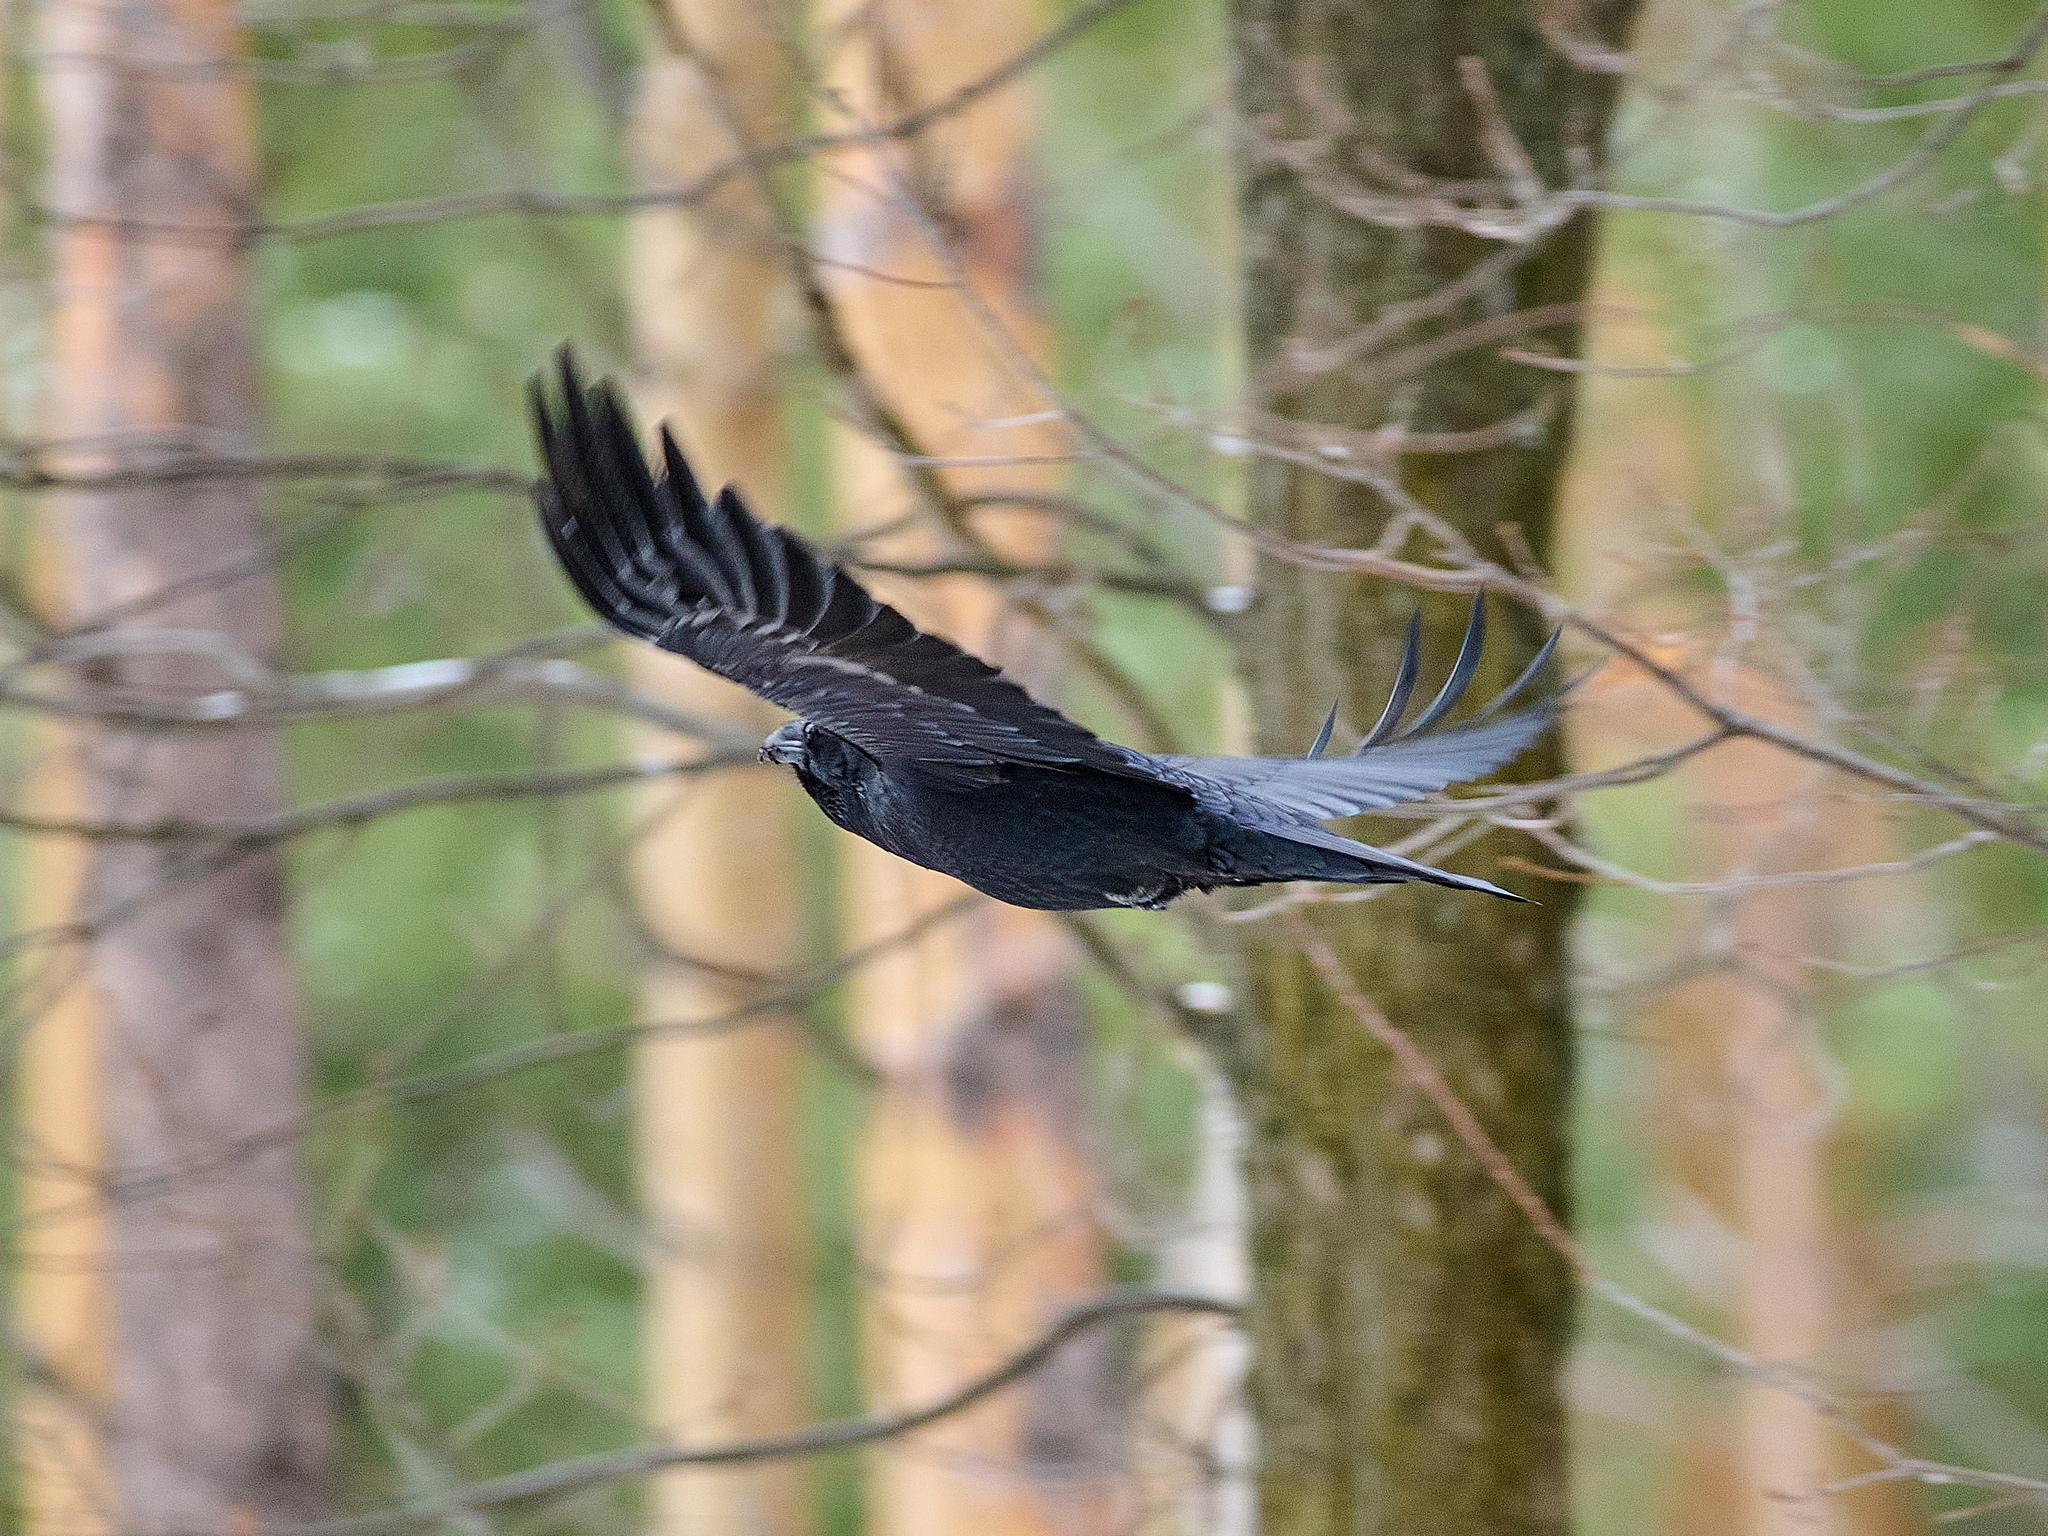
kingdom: Animalia
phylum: Chordata
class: Aves
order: Passeriformes
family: Corvidae
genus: Corvus
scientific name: Corvus corax
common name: Common raven
